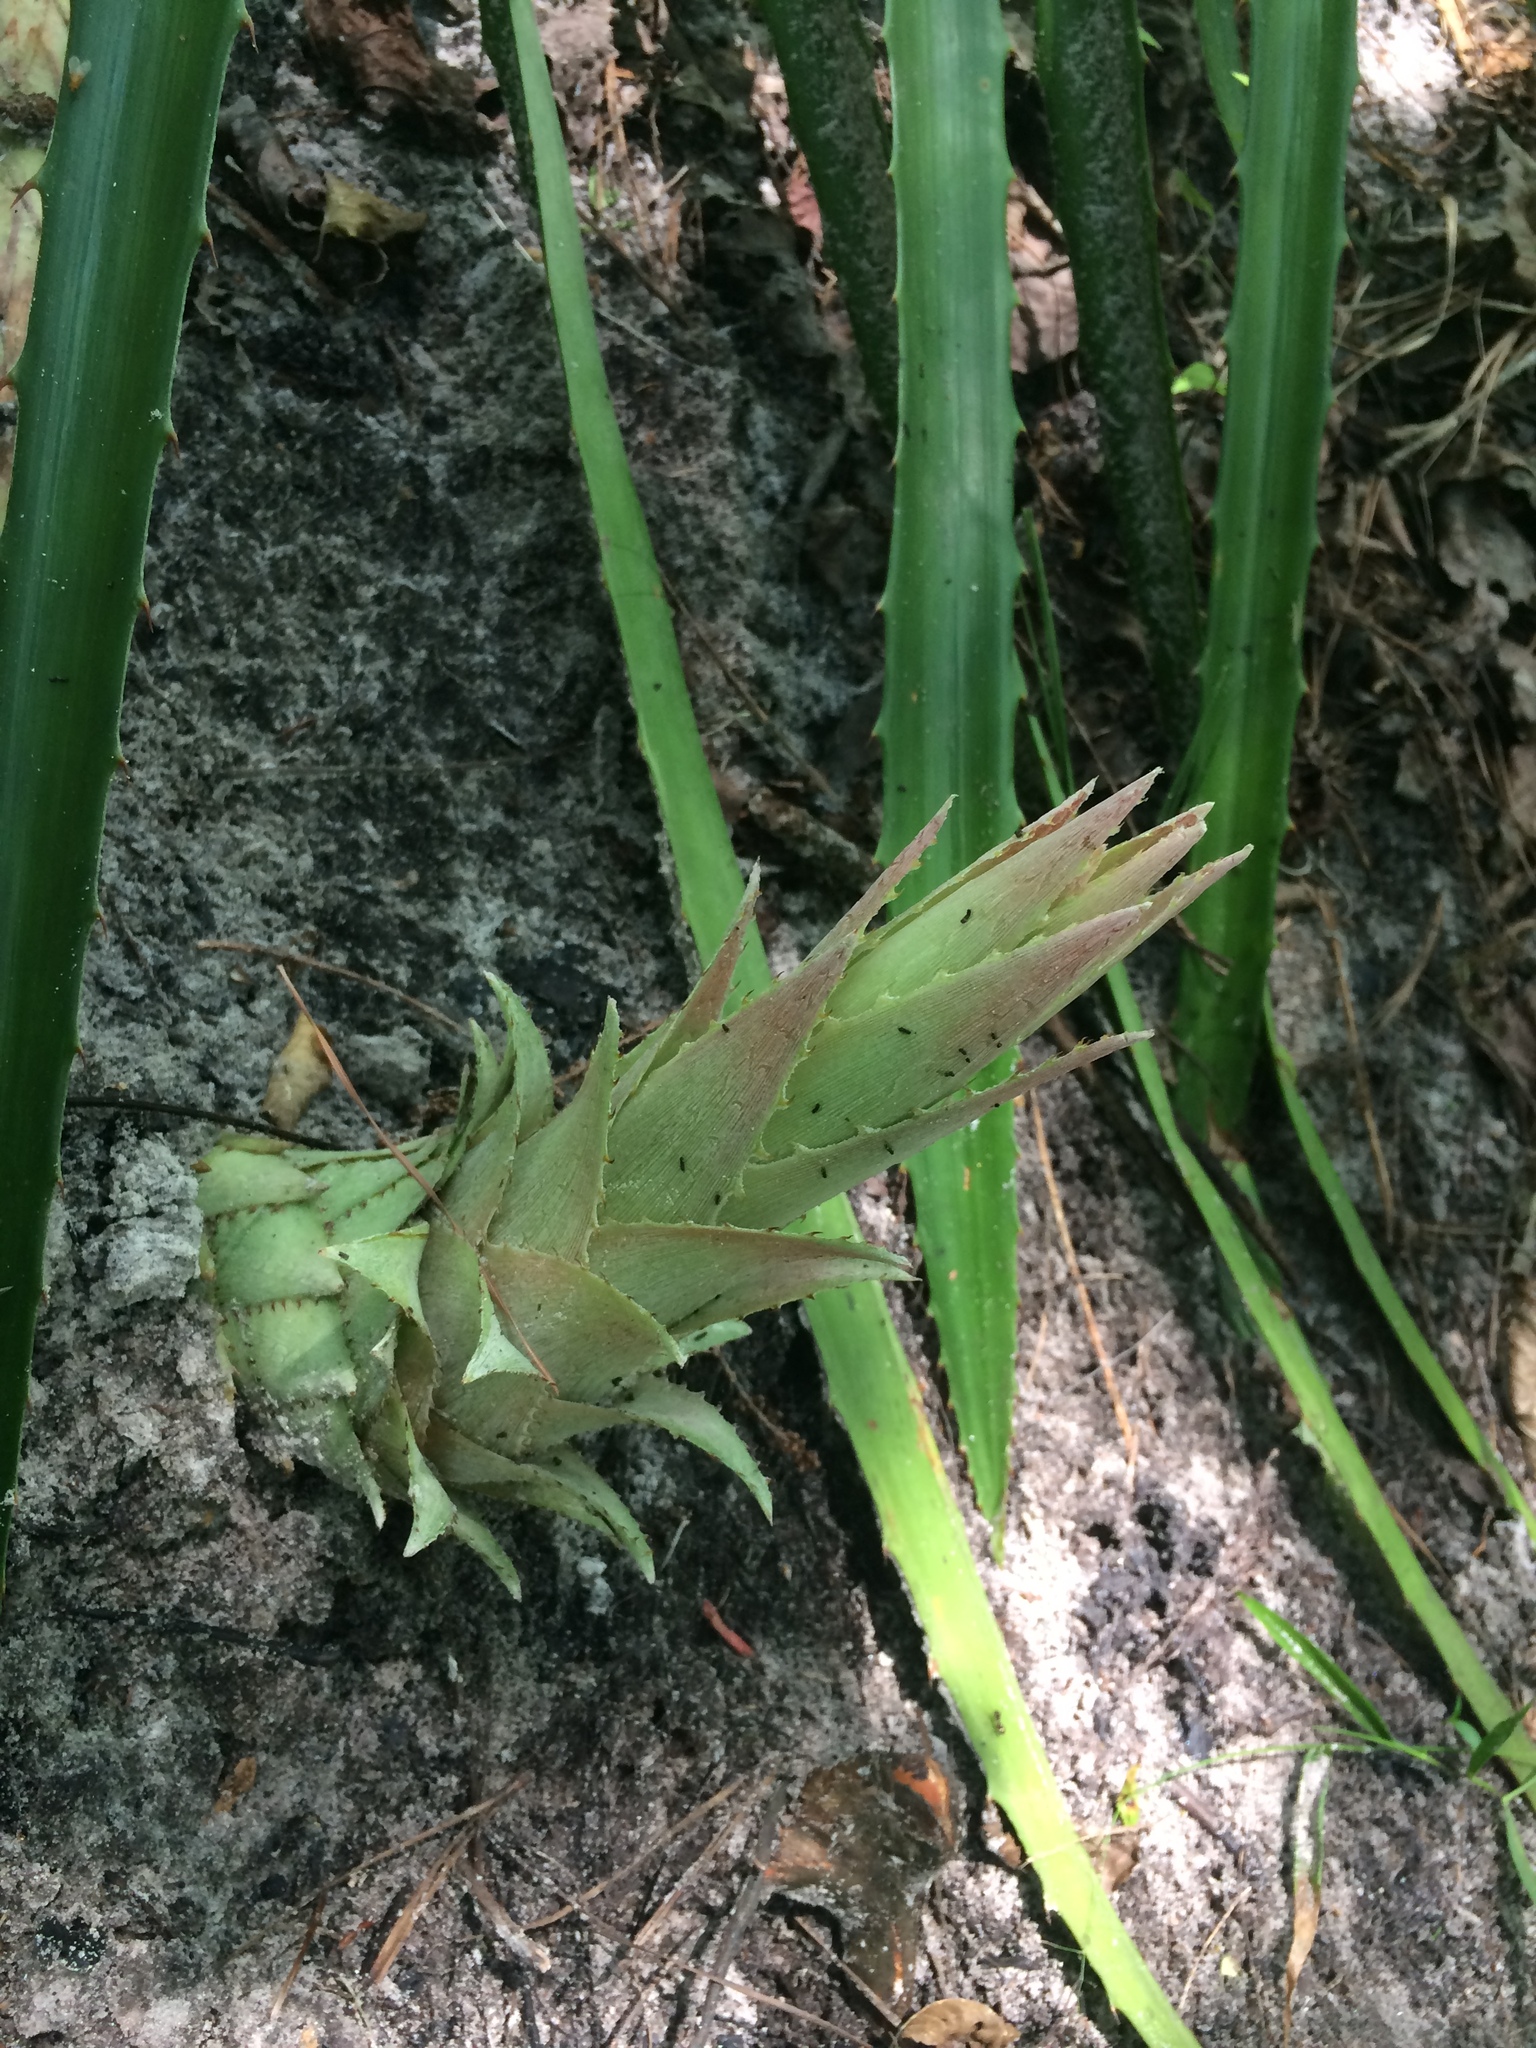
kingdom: Plantae
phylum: Tracheophyta
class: Liliopsida
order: Poales
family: Bromeliaceae
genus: Bromelia
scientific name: Bromelia pinguin
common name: Pinguin
